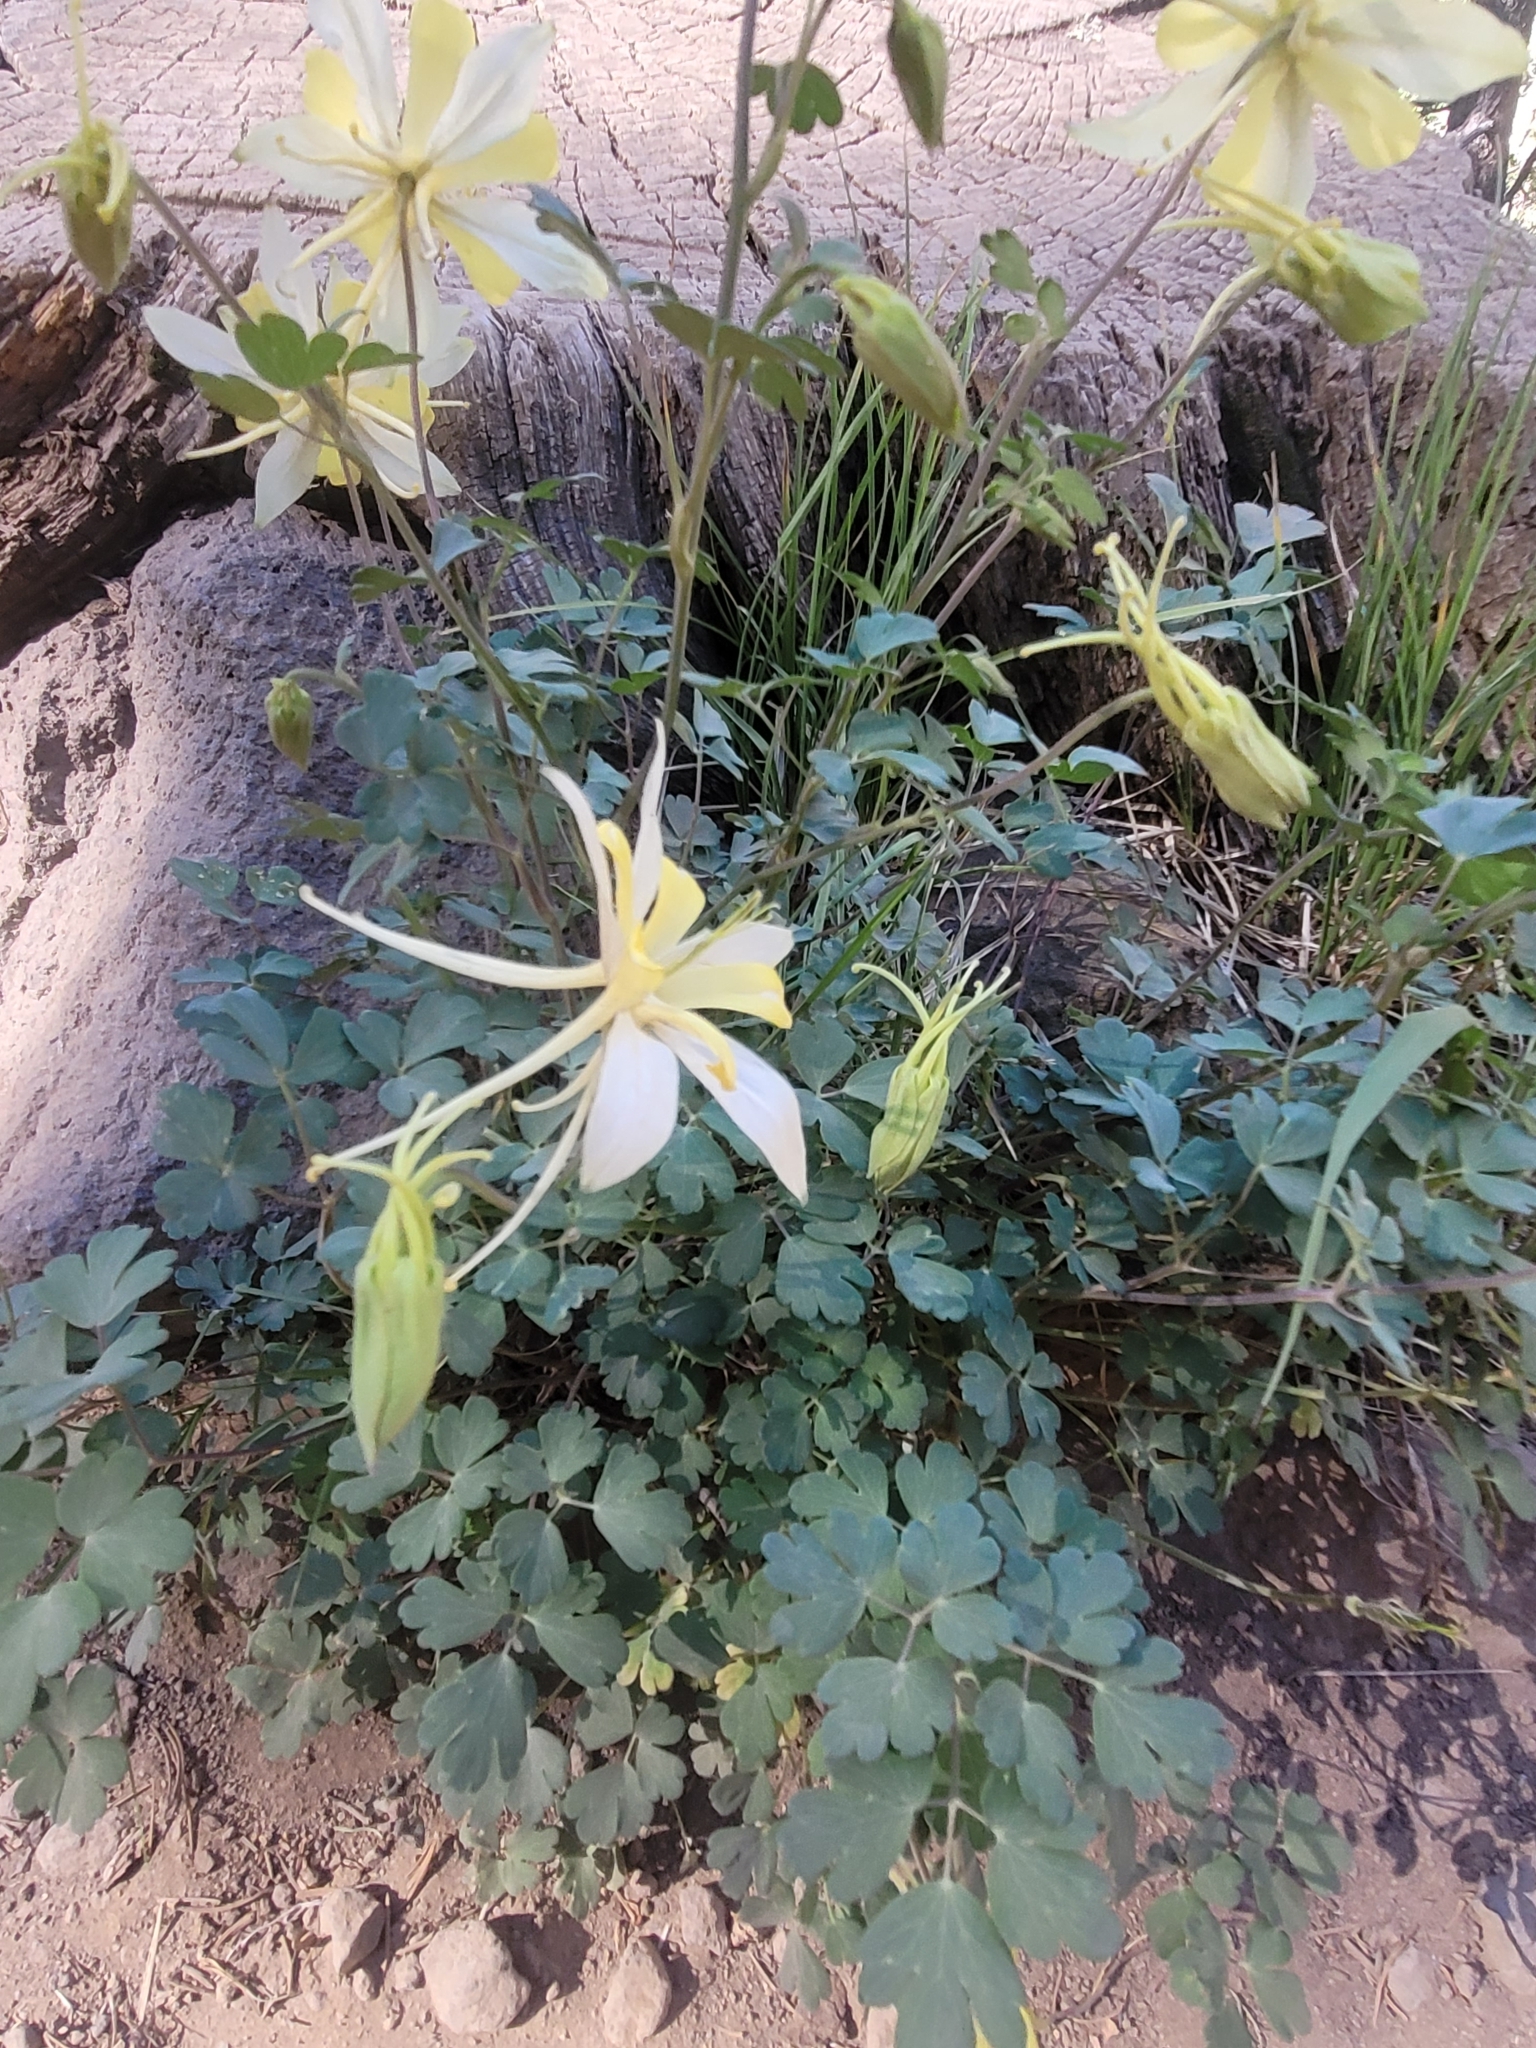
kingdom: Plantae
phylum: Tracheophyta
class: Magnoliopsida
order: Ranunculales
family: Ranunculaceae
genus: Aquilegia
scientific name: Aquilegia chrysantha
